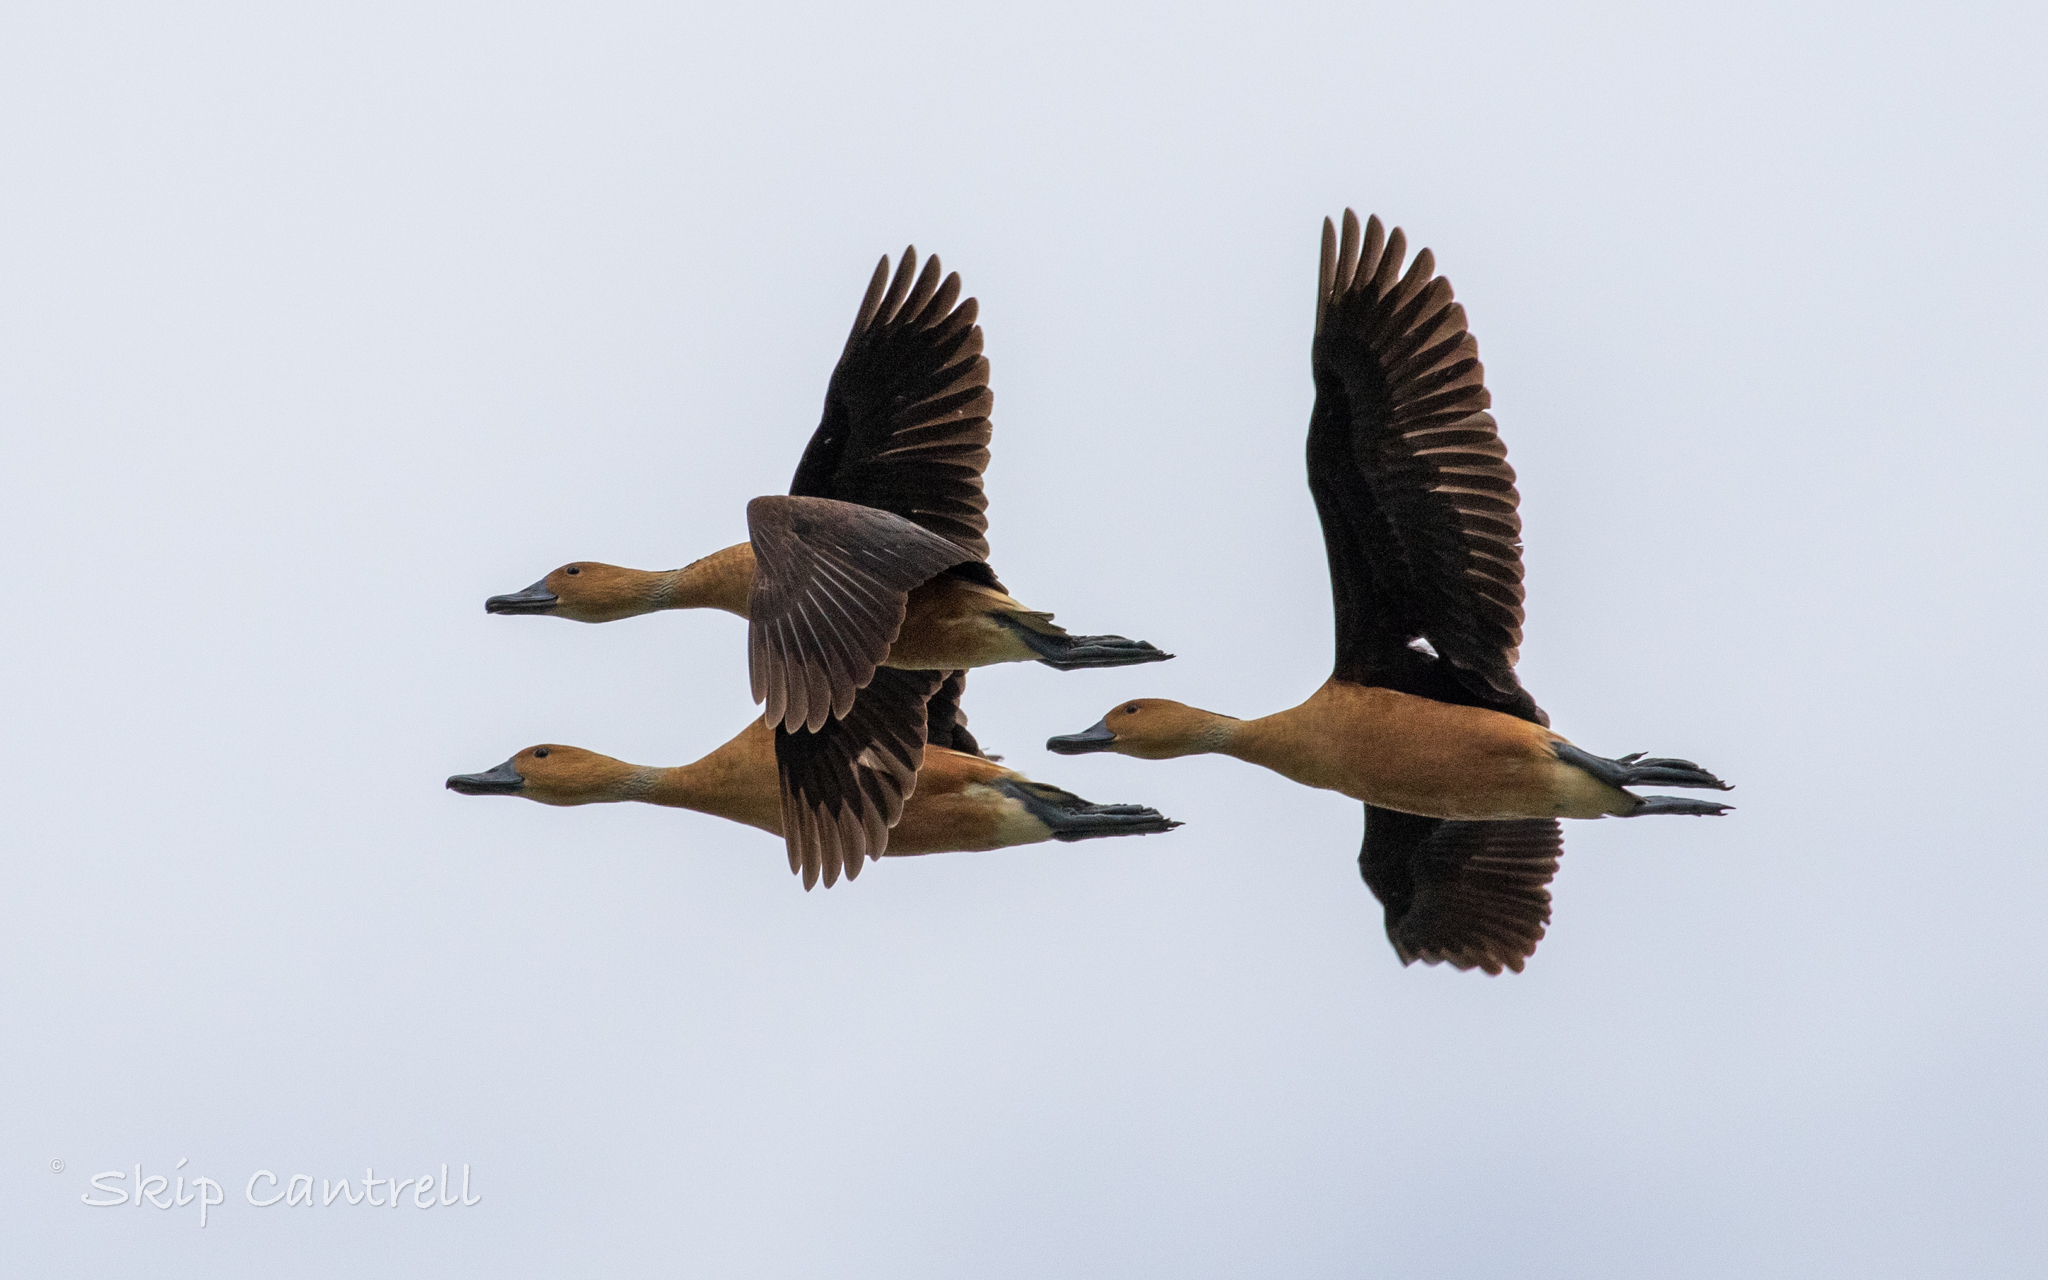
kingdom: Animalia
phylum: Chordata
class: Aves
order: Anseriformes
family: Anatidae
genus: Dendrocygna
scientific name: Dendrocygna bicolor
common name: Fulvous whistling duck
